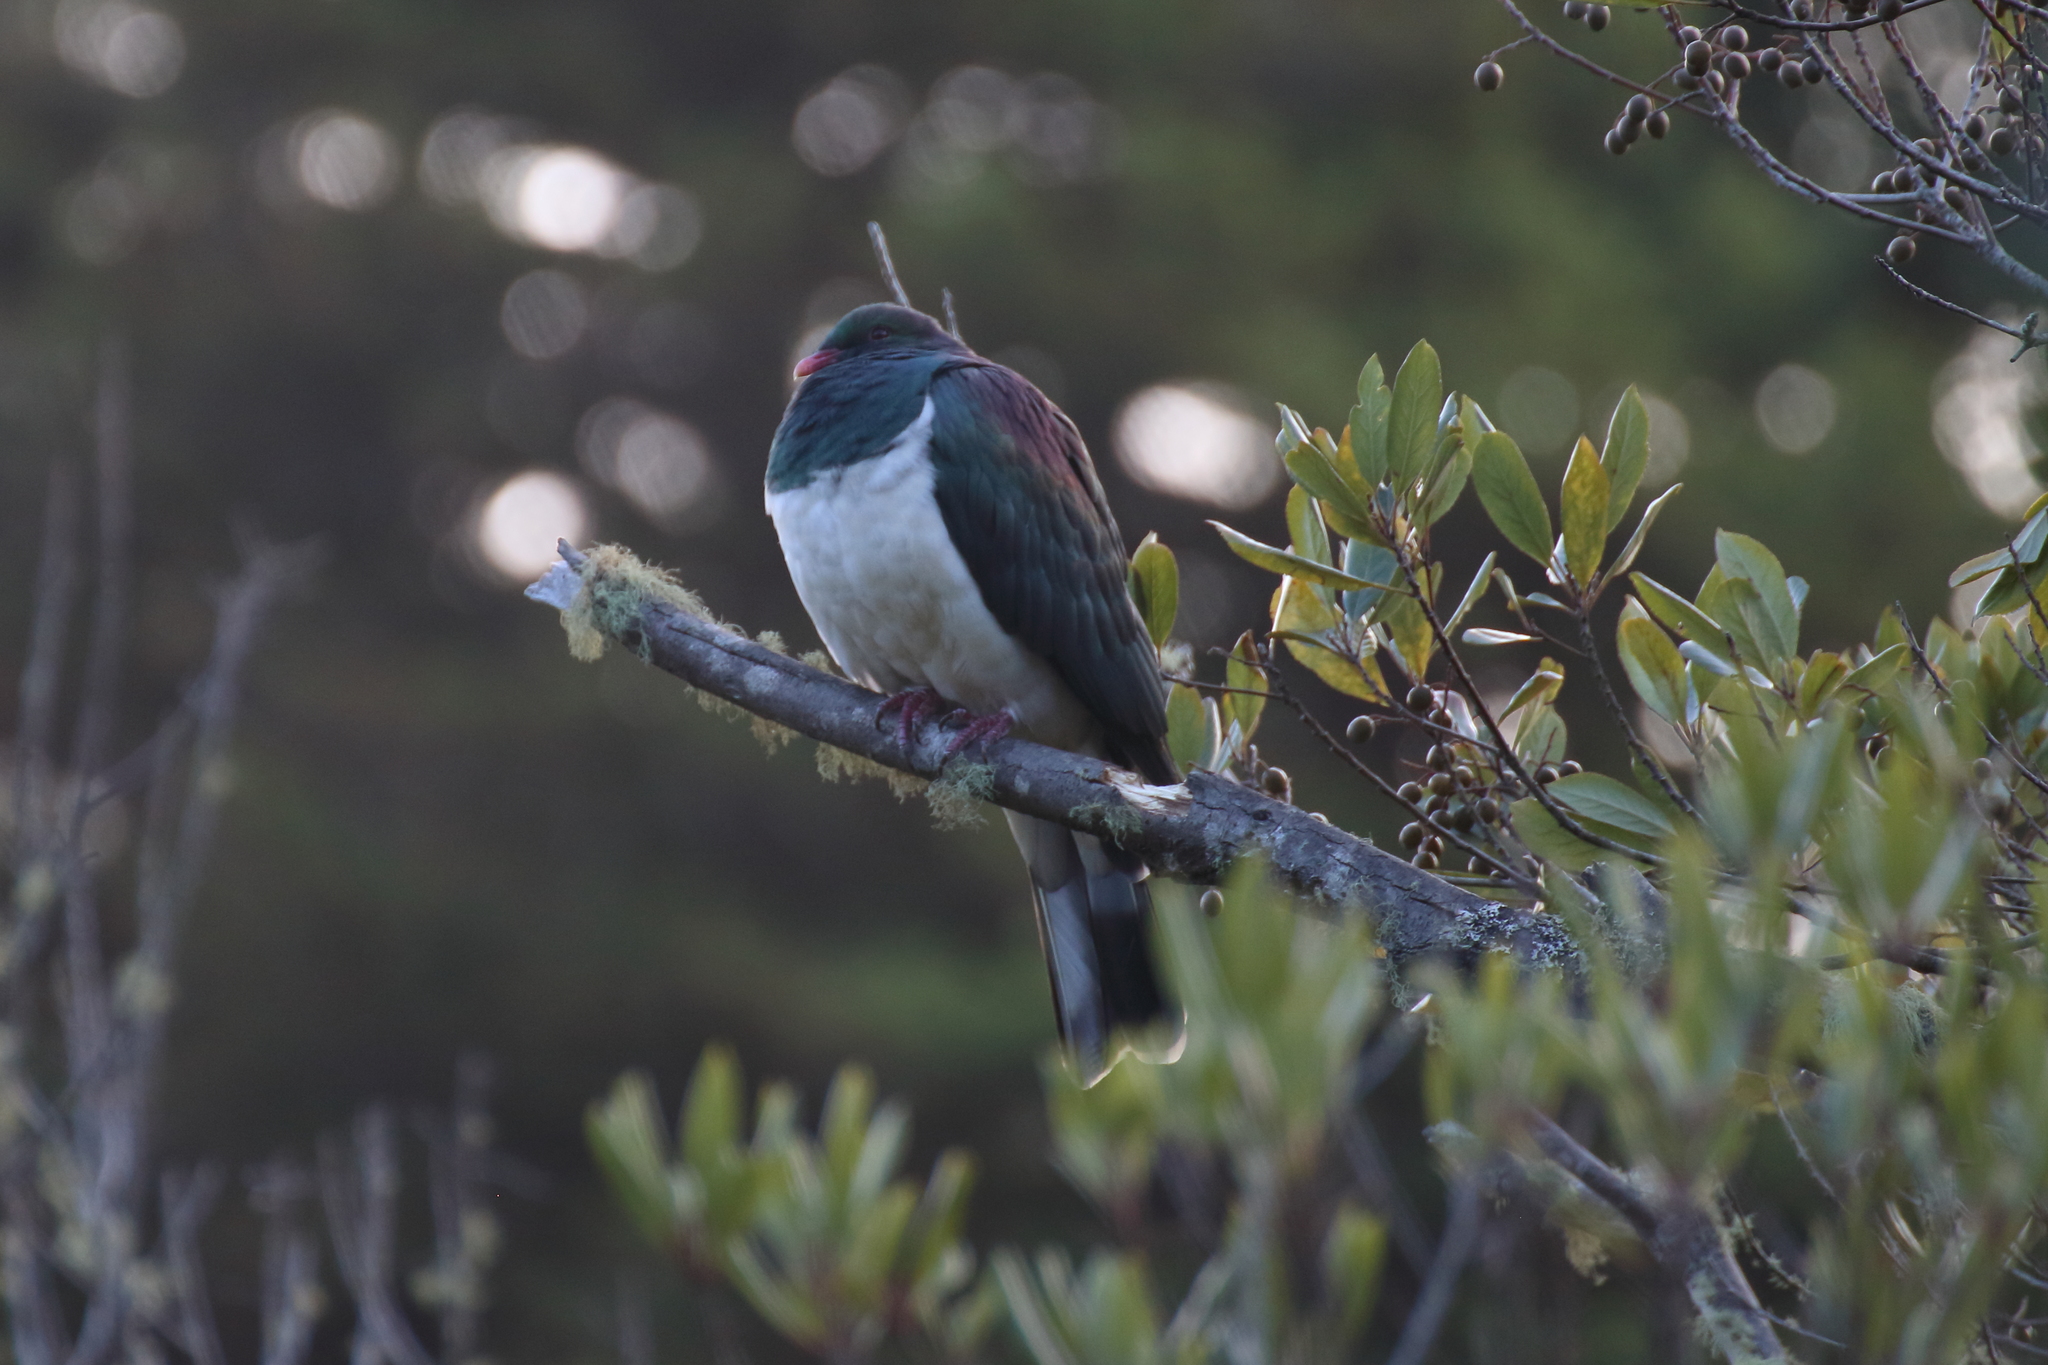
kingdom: Animalia
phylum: Chordata
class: Aves
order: Columbiformes
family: Columbidae
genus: Hemiphaga
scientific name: Hemiphaga novaeseelandiae
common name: New zealand pigeon
